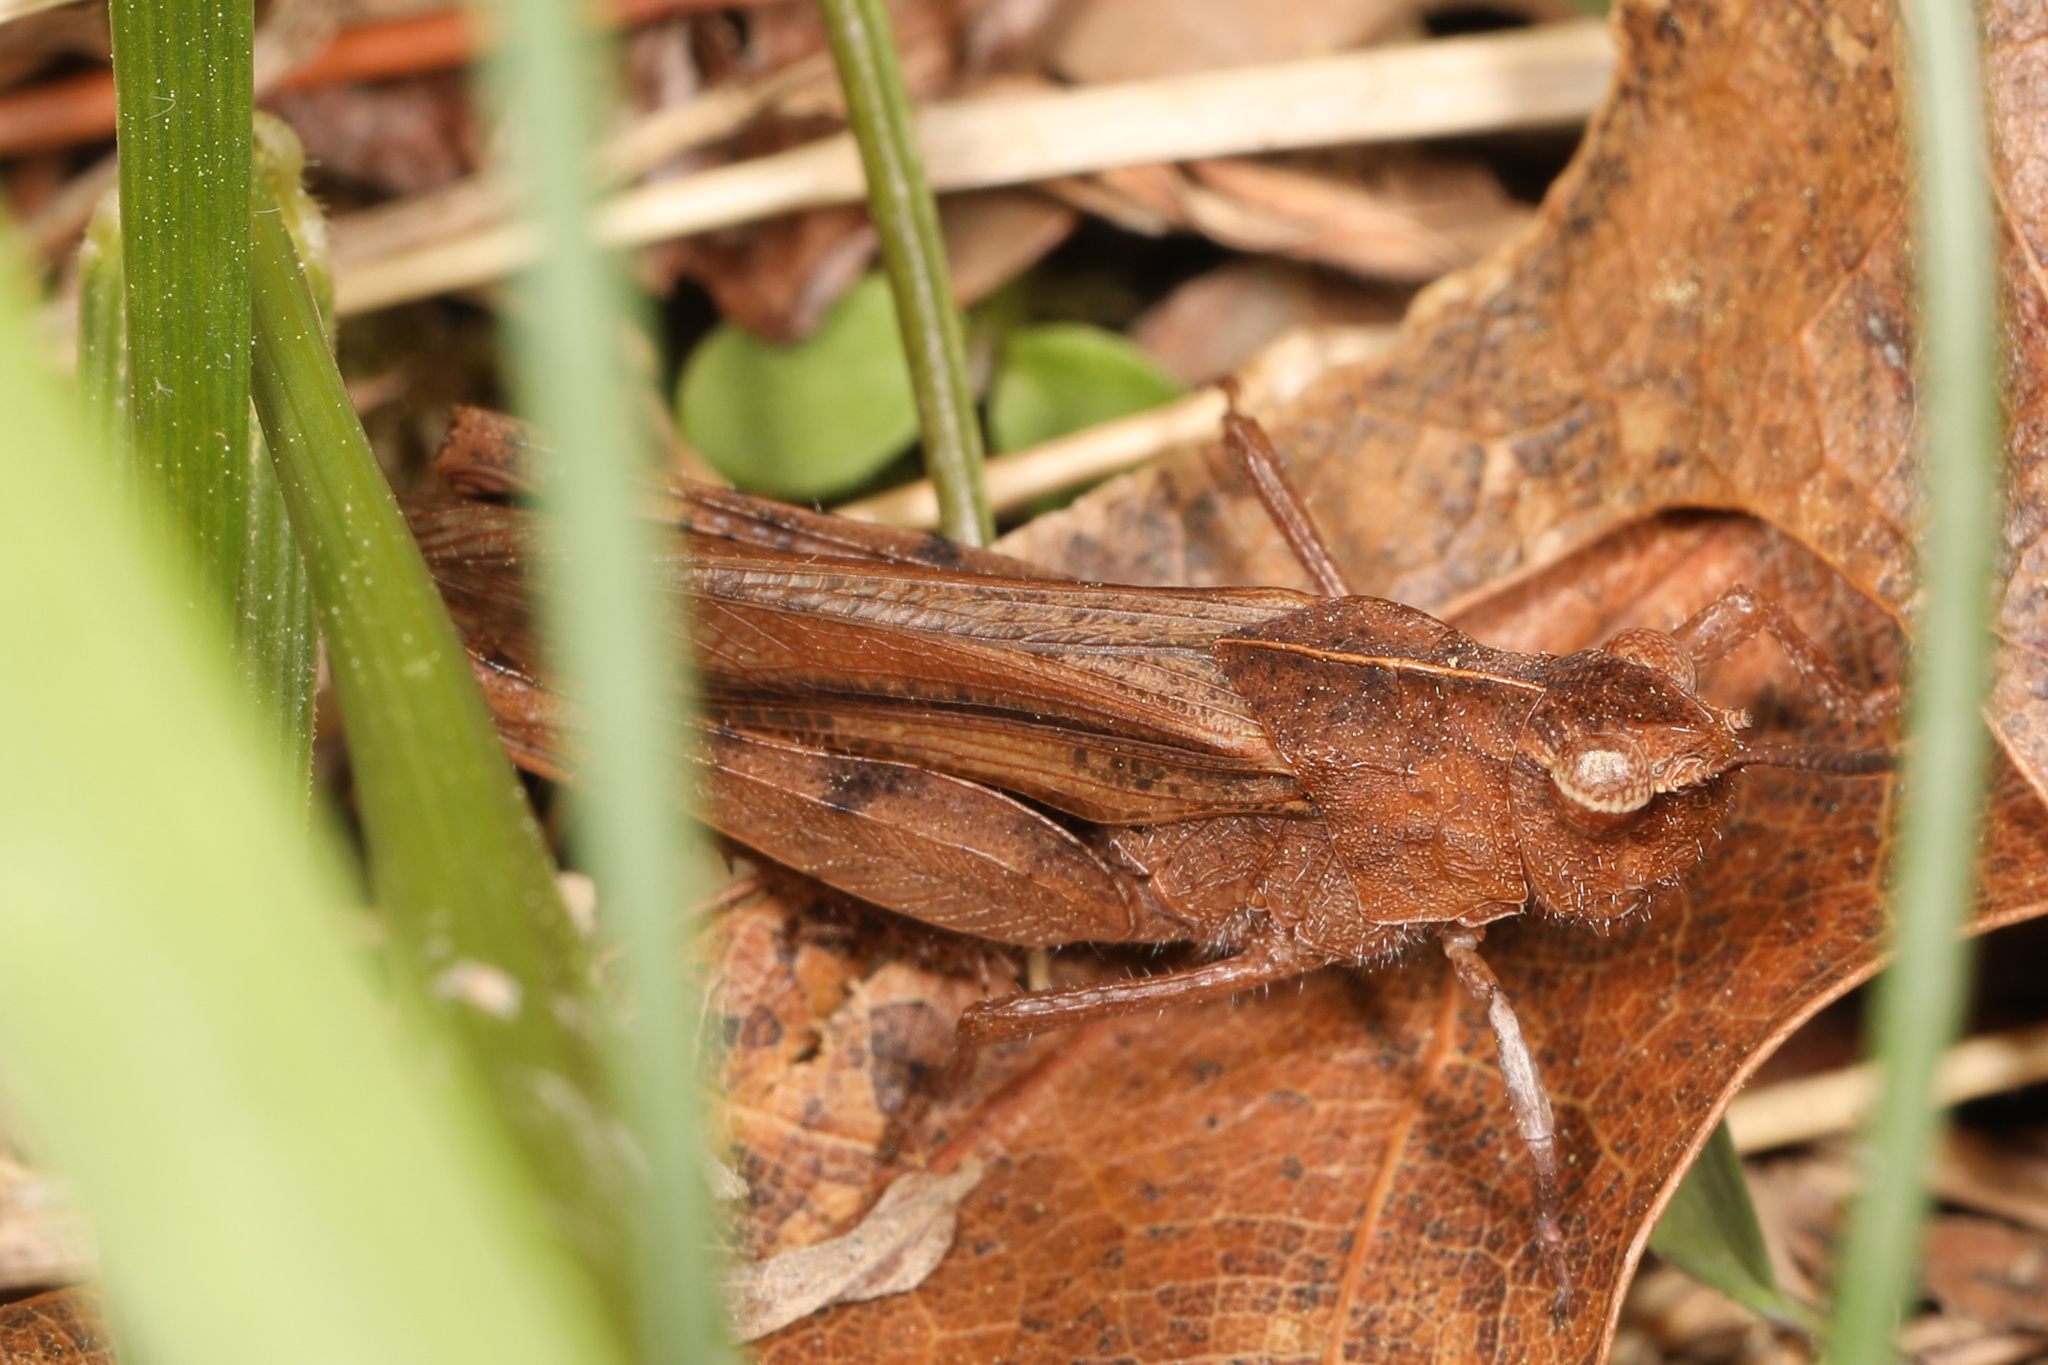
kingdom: Animalia
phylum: Arthropoda
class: Insecta
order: Orthoptera
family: Acrididae
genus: Chortophaga
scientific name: Chortophaga viridifasciata
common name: Green-striped grasshopper
